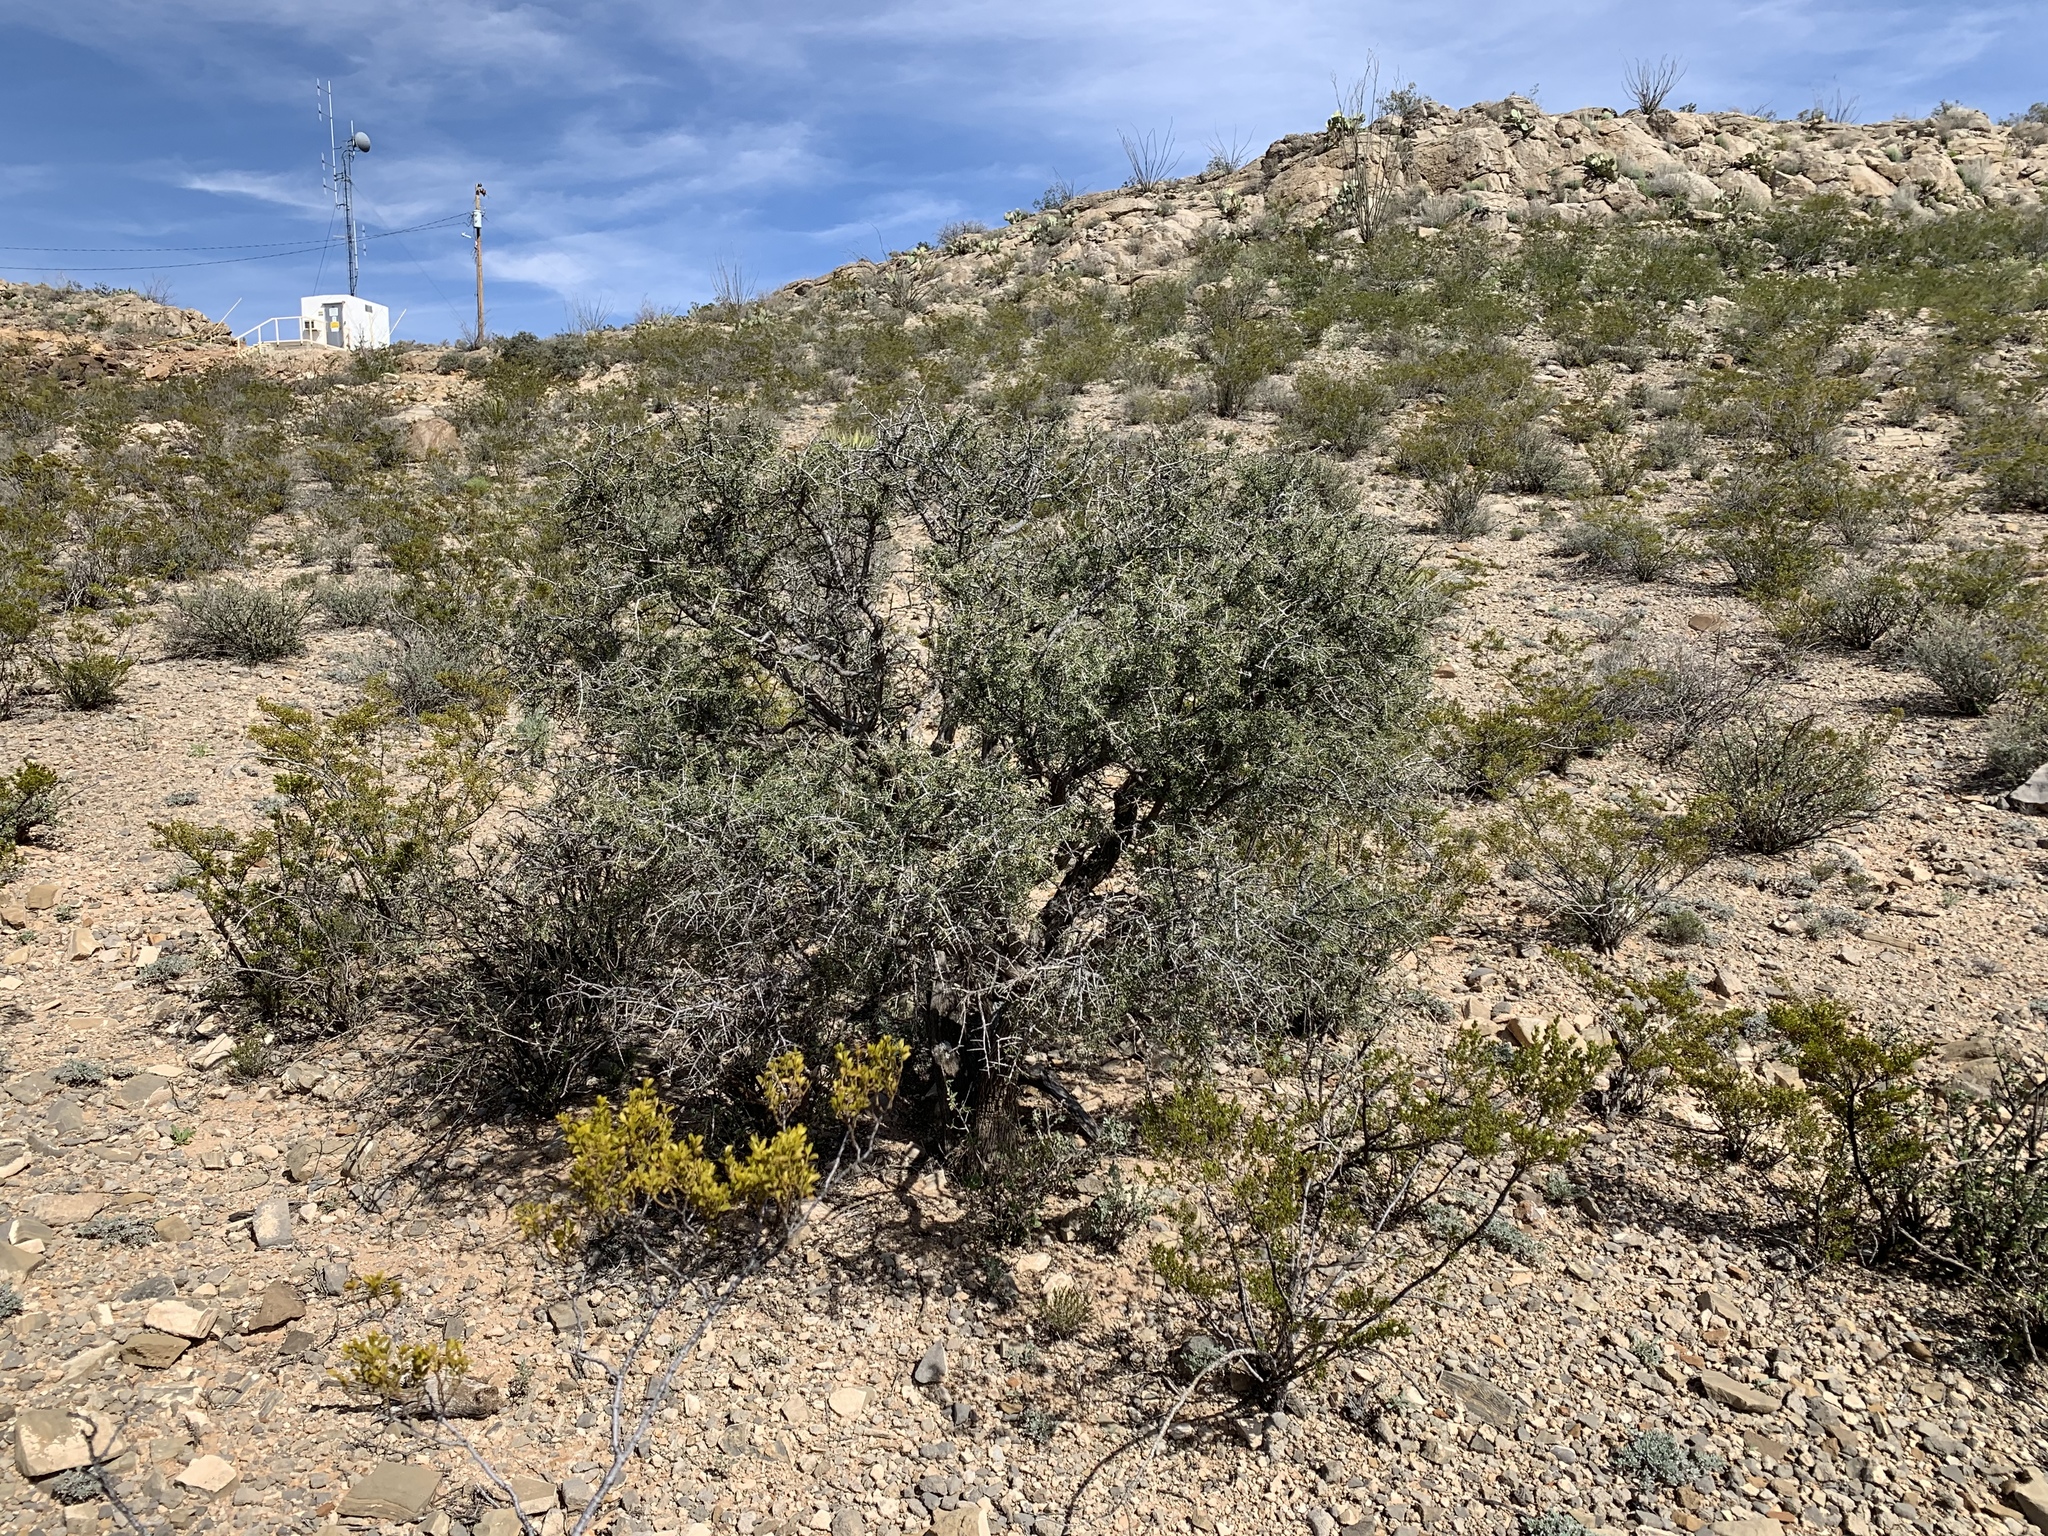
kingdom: Plantae
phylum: Tracheophyta
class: Magnoliopsida
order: Rosales
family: Rhamnaceae
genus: Condalia
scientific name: Condalia warnockii
